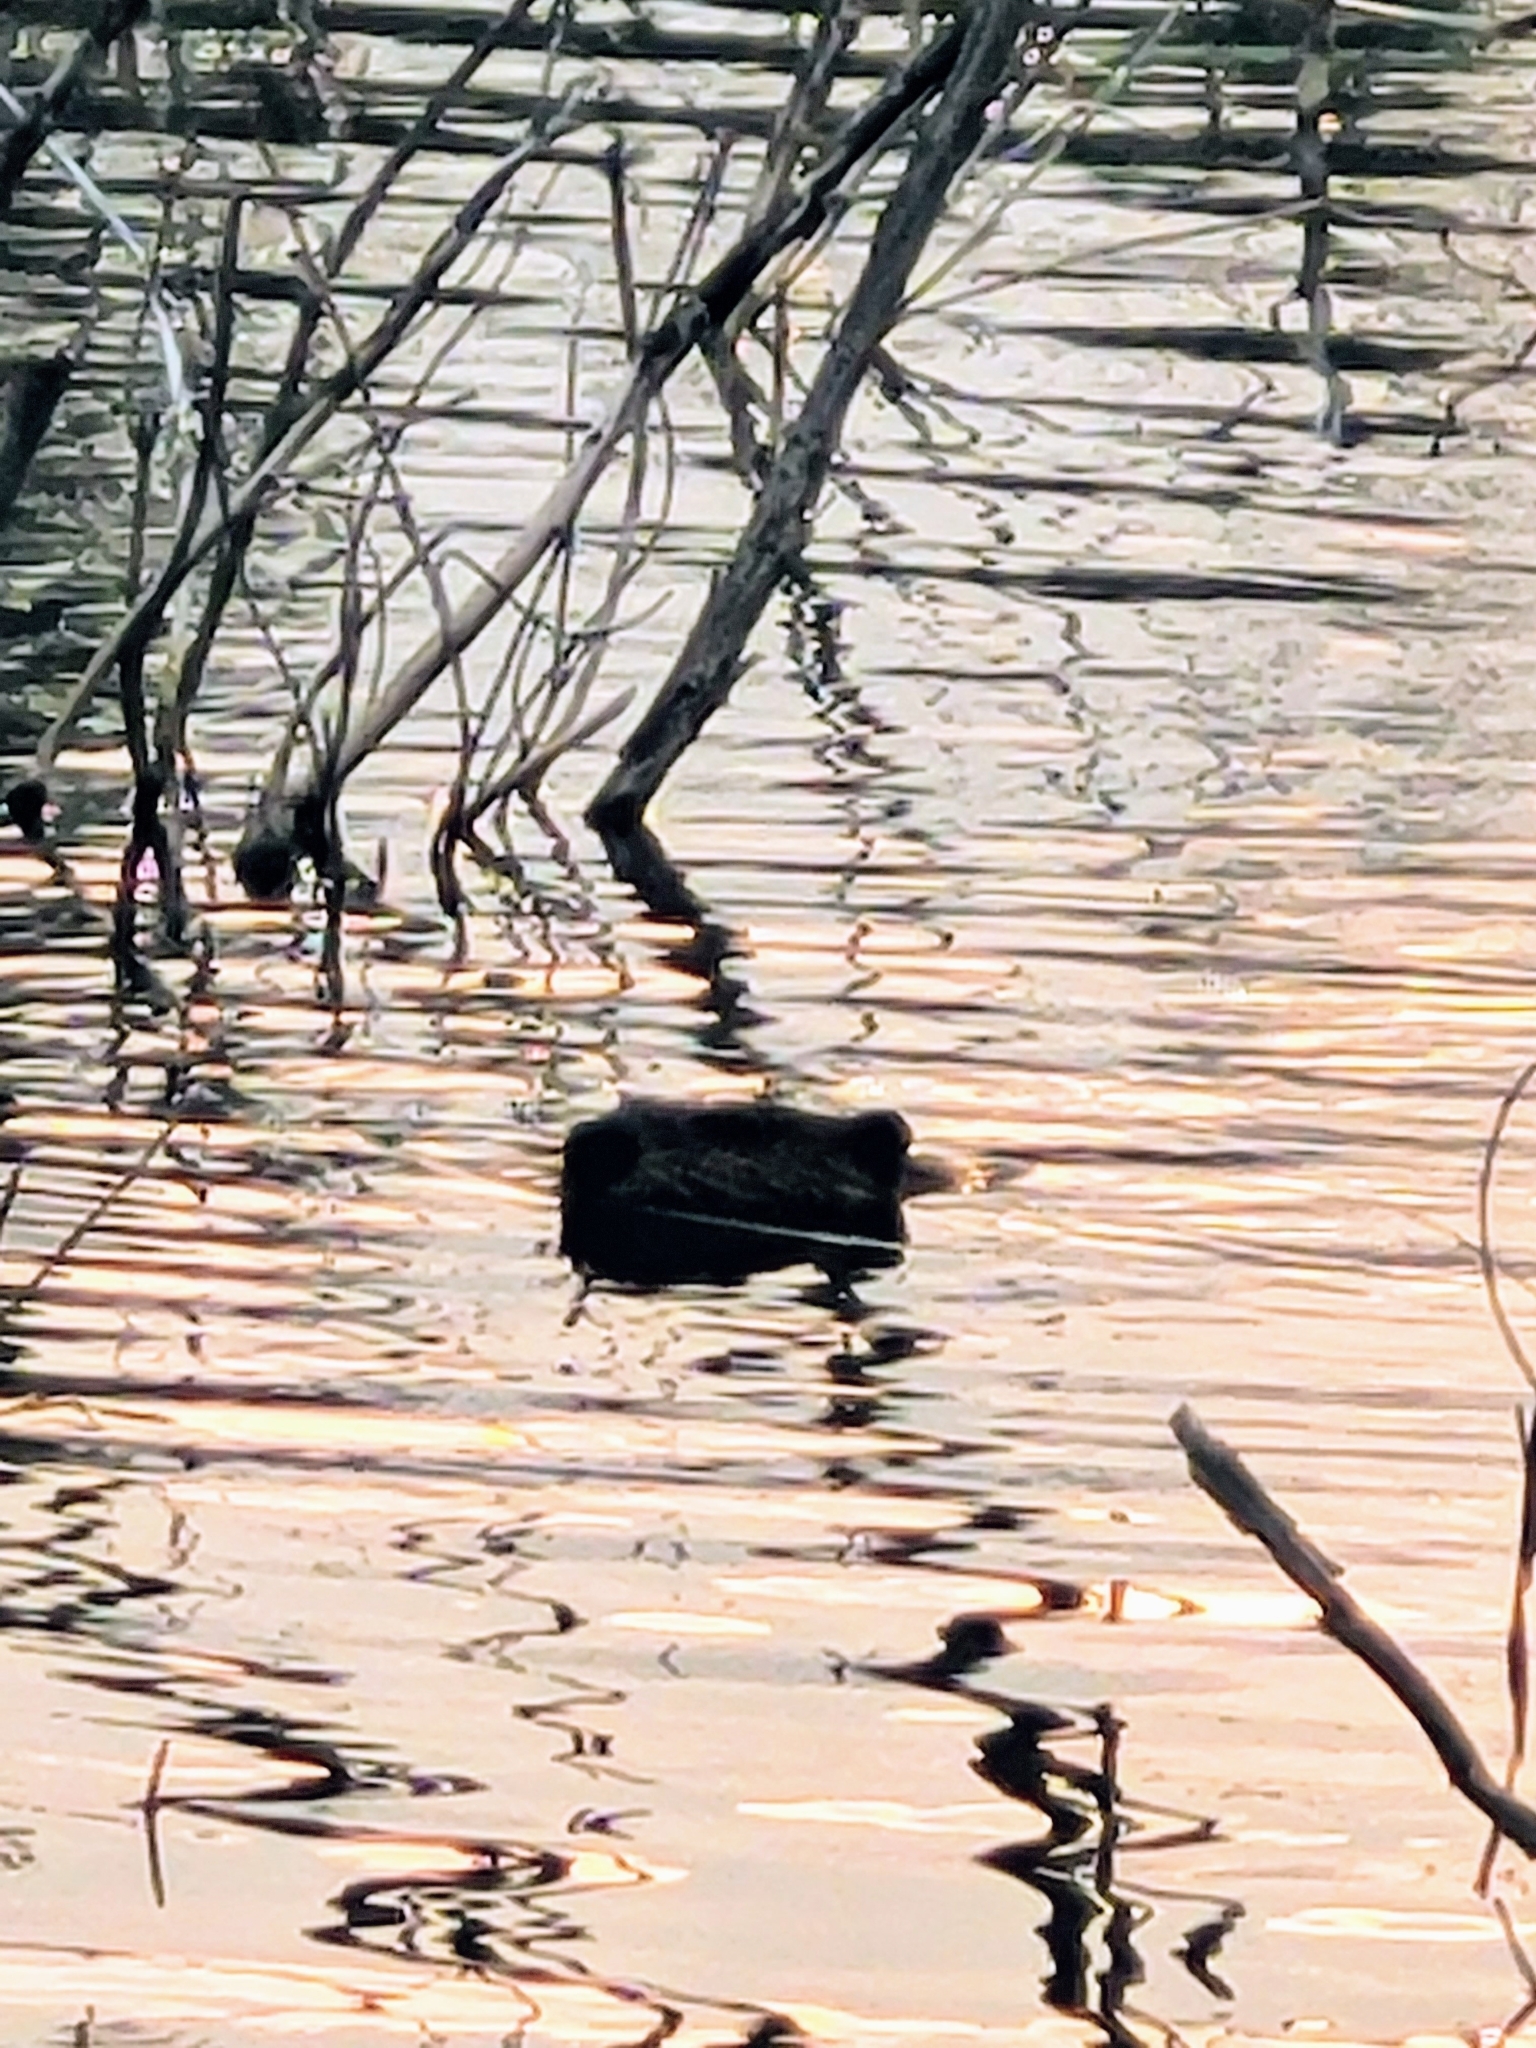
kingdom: Animalia
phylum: Chordata
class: Mammalia
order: Rodentia
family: Castoridae
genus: Castor
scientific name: Castor canadensis
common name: American beaver
